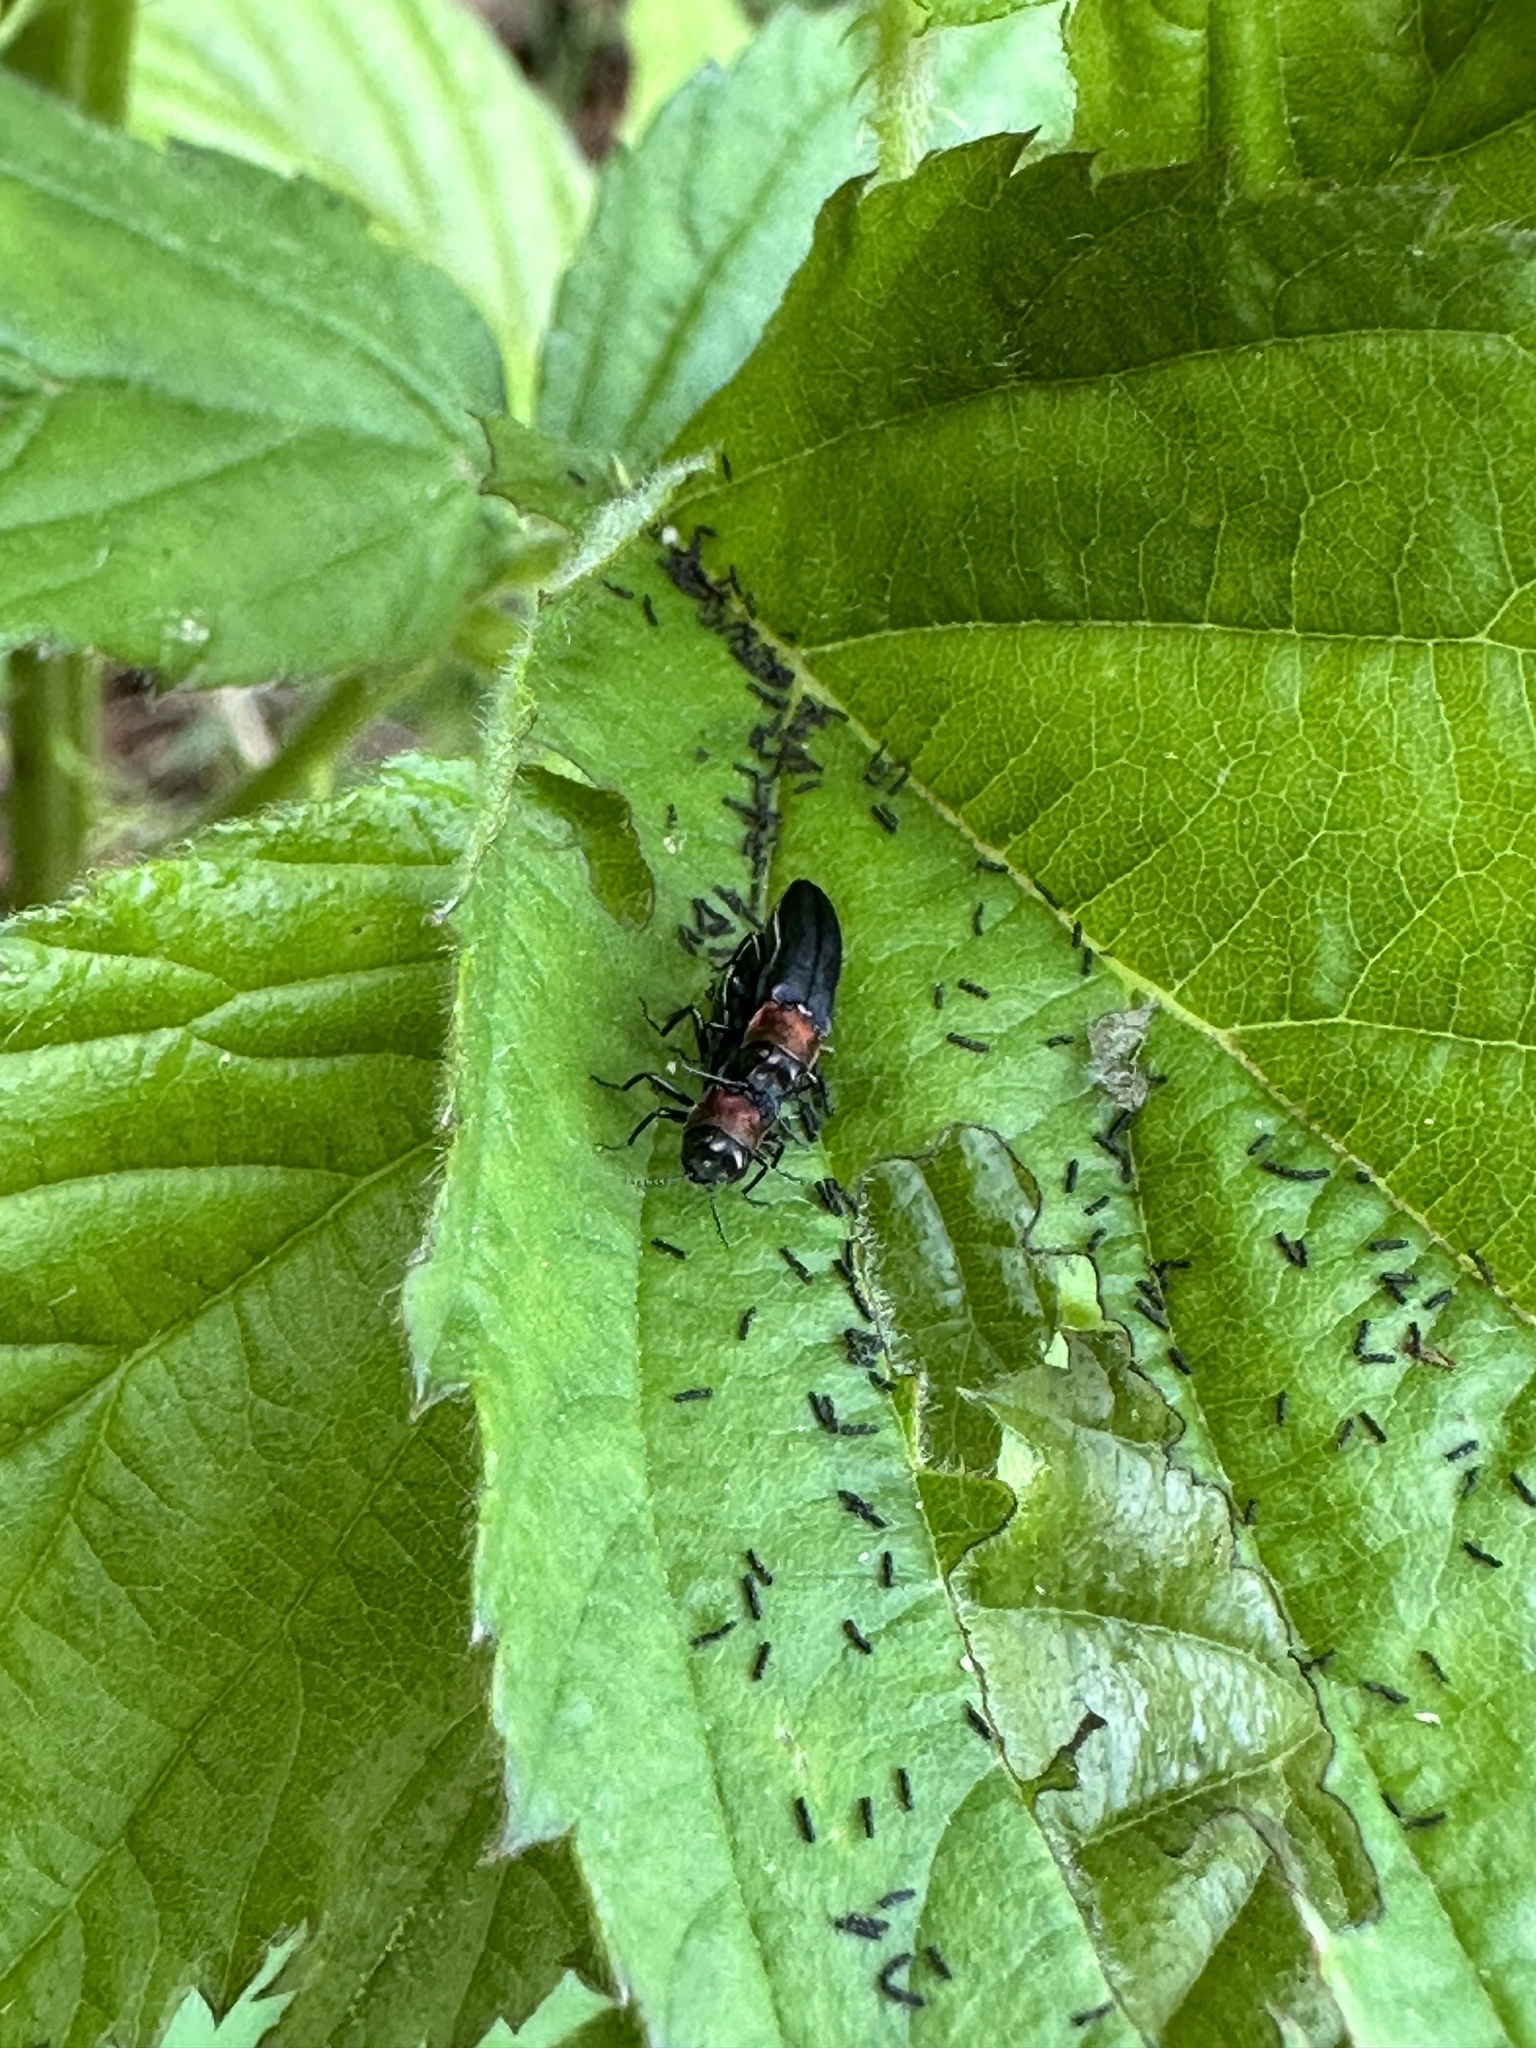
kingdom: Animalia
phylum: Arthropoda
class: Insecta
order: Coleoptera
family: Buprestidae
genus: Agrilus
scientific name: Agrilus ruficollis
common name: Red-necked cane borer beetle
